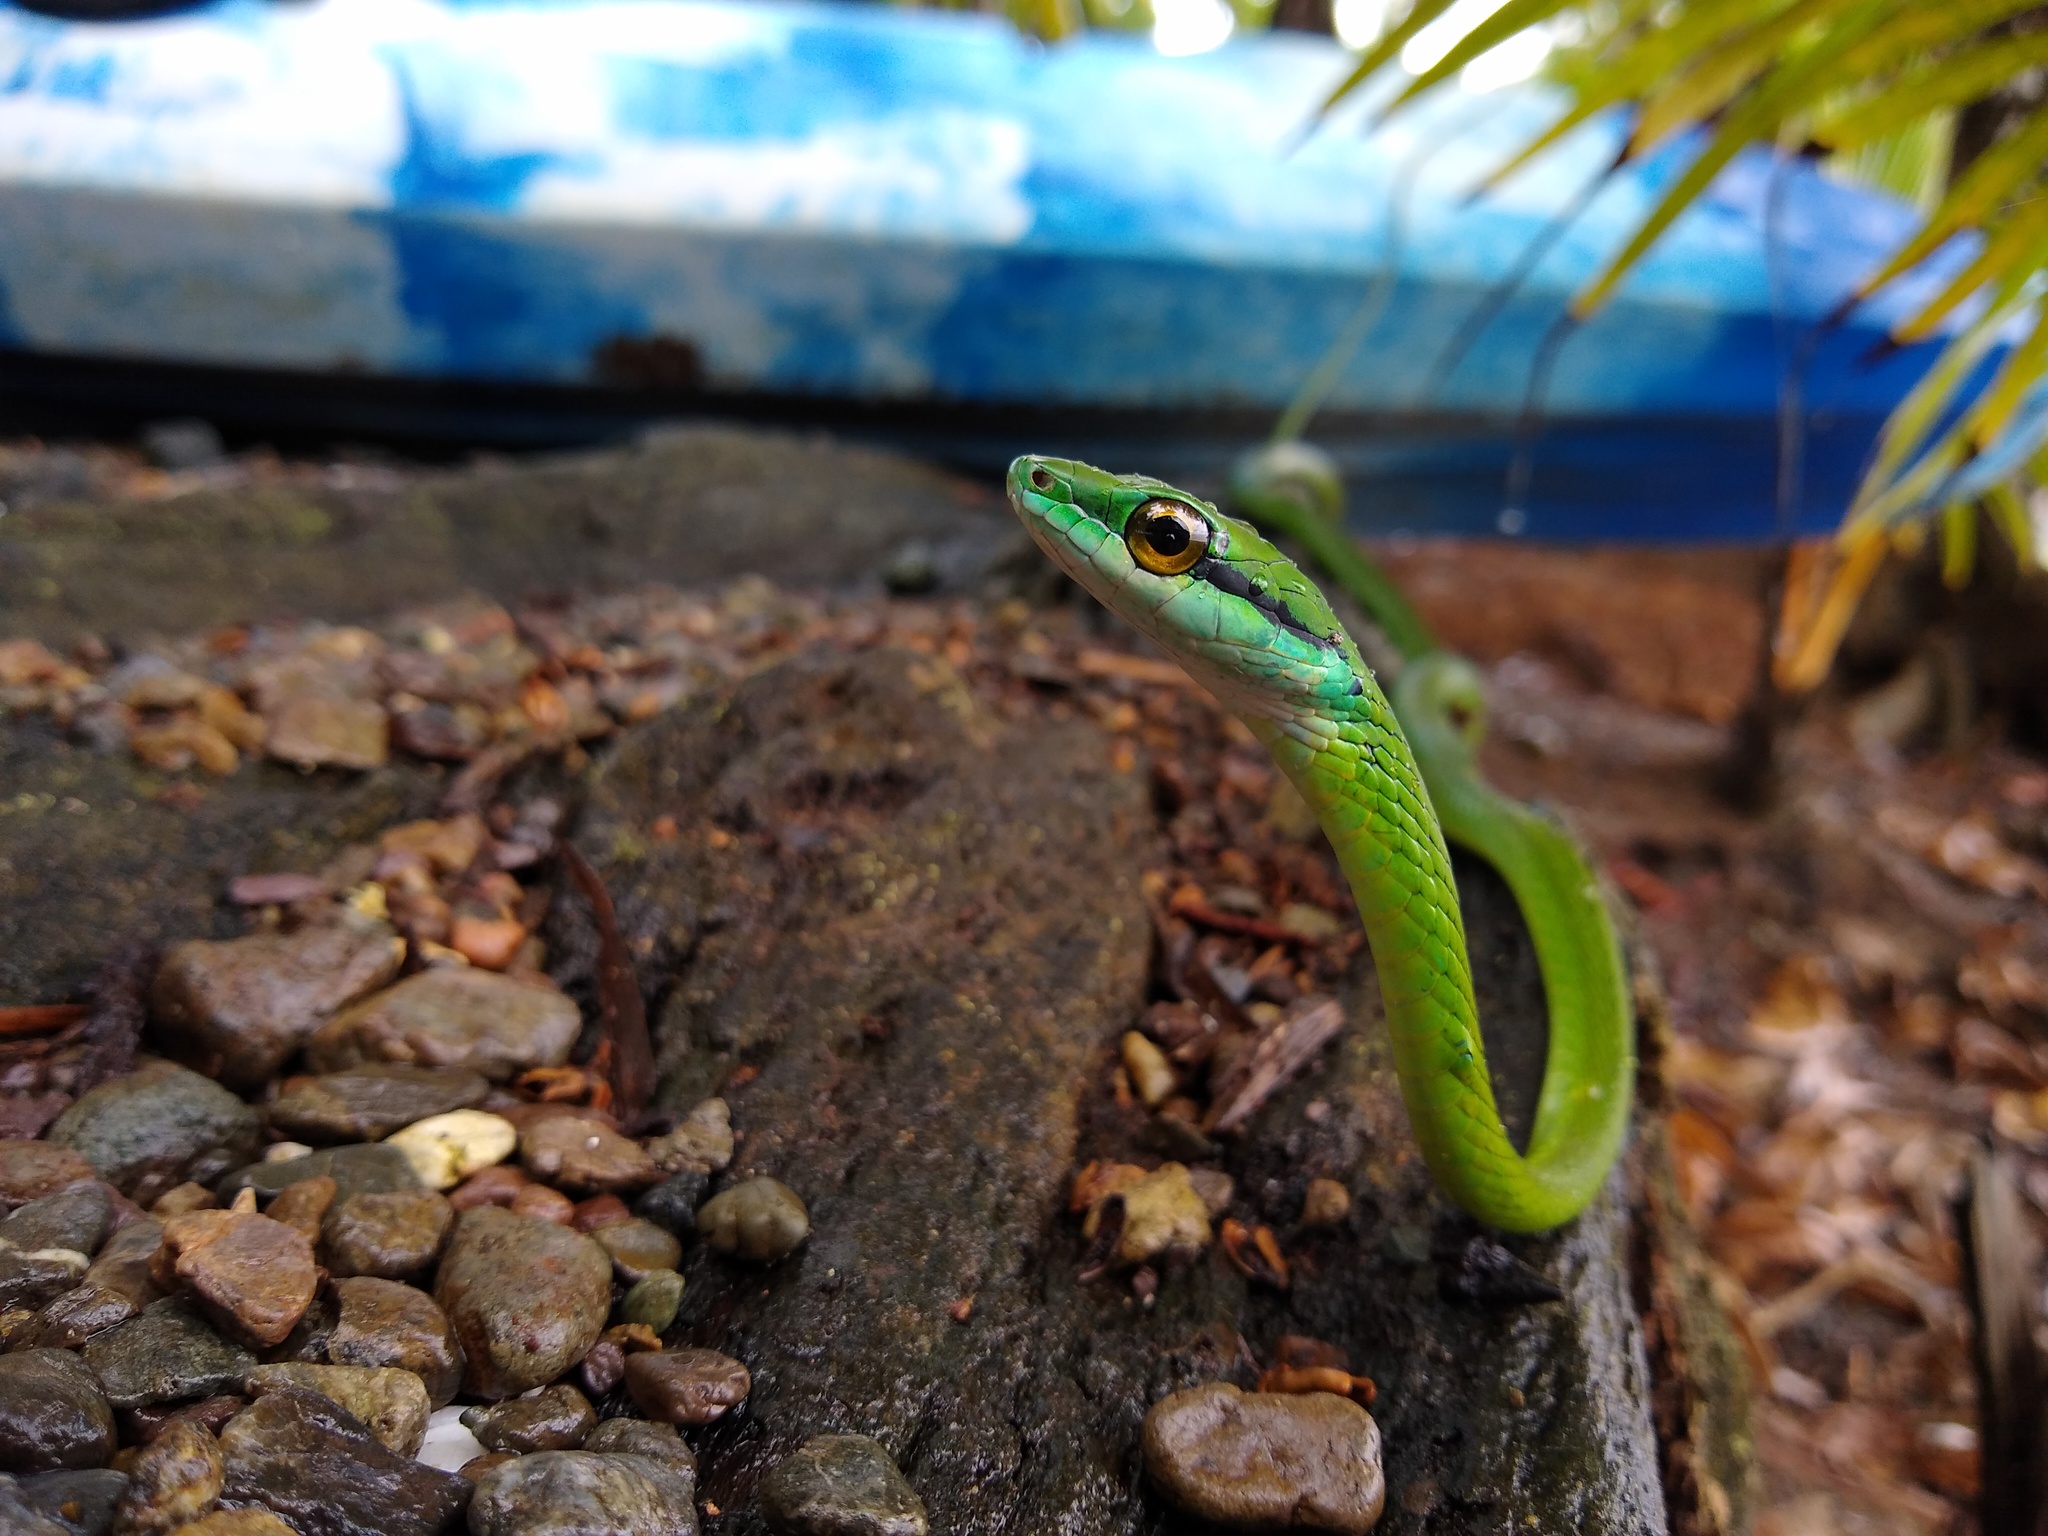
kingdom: Animalia
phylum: Chordata
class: Squamata
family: Colubridae
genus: Leptophis
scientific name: Leptophis ahaetulla
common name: Parrot snake
